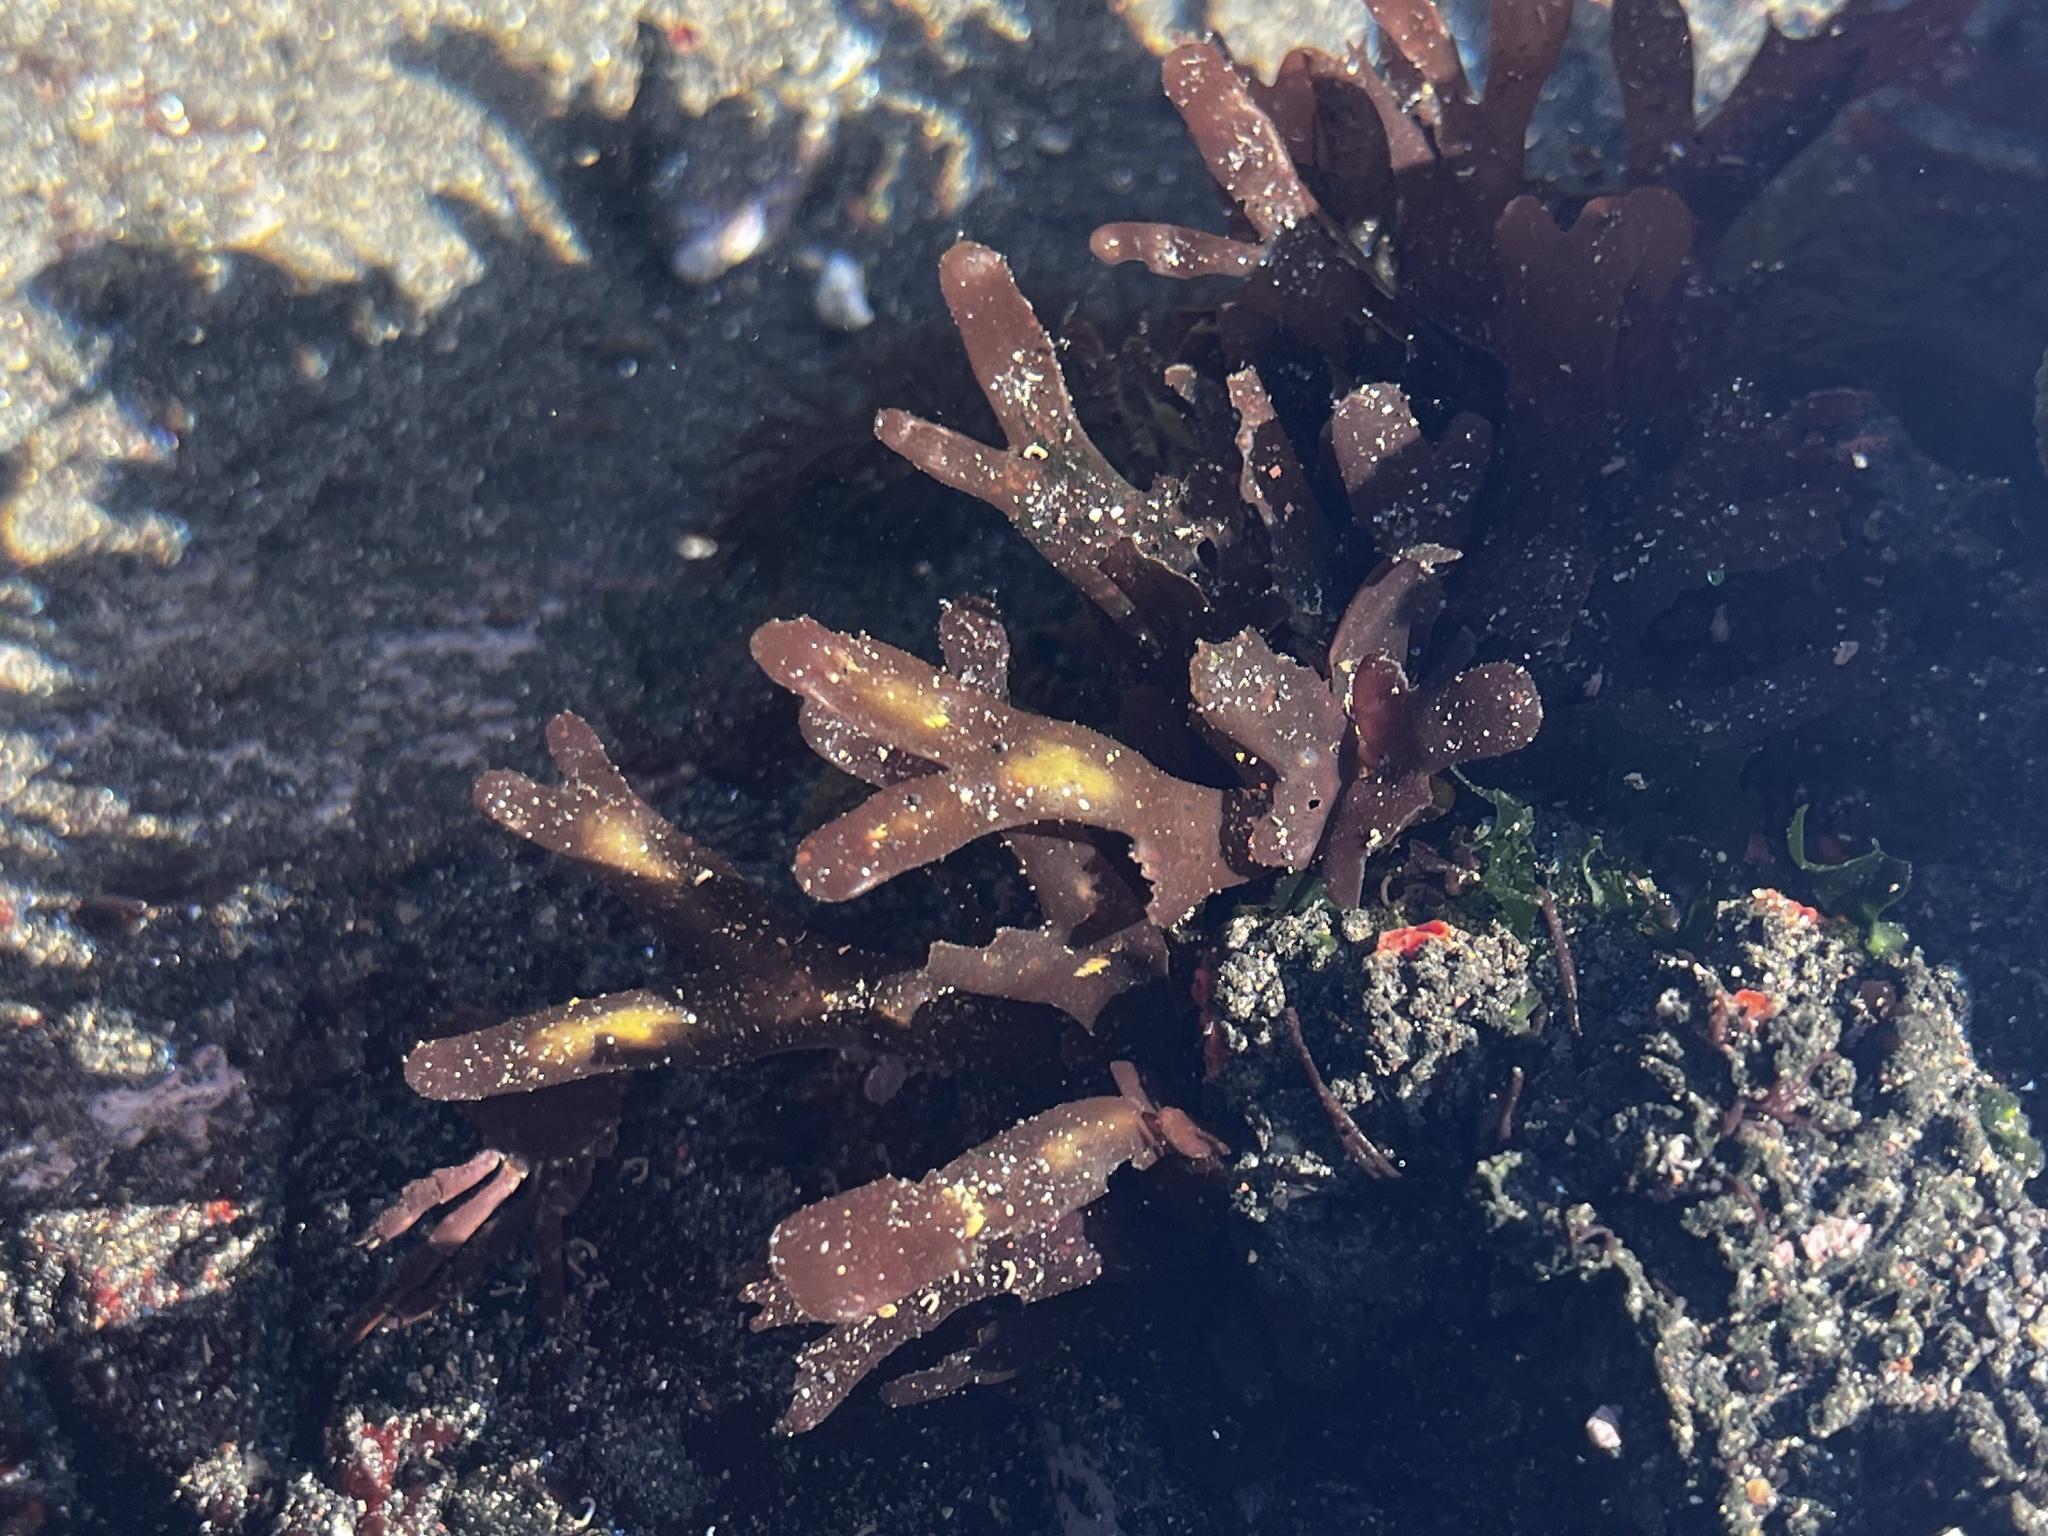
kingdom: Plantae
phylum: Rhodophyta
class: Florideophyceae
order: Rhodymeniales
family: Rhodymeniaceae
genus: Rhodymenia
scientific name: Rhodymenia skottsbergi
